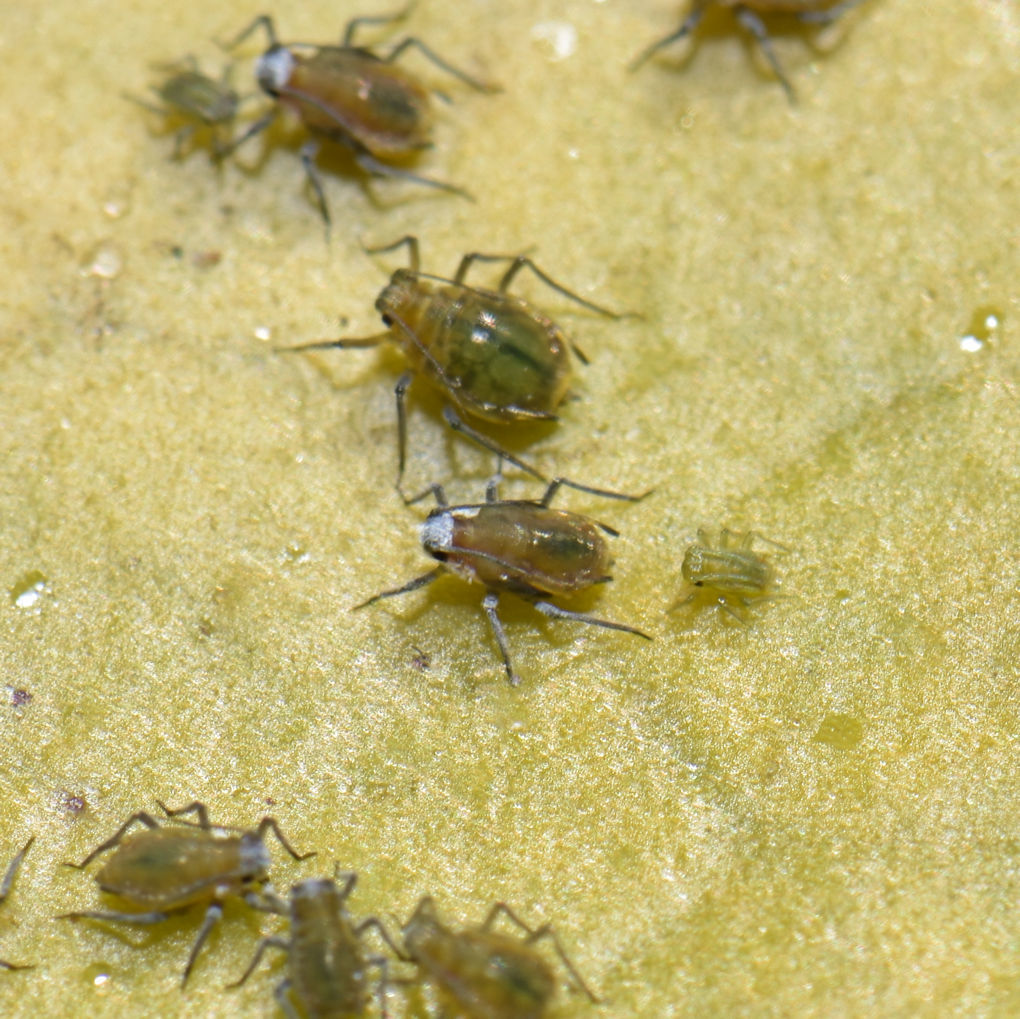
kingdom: Animalia
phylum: Arthropoda
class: Insecta
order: Hemiptera
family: Aphididae
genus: Rhopalosiphum
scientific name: Rhopalosiphum nymphaeae
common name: Water lily aphid
